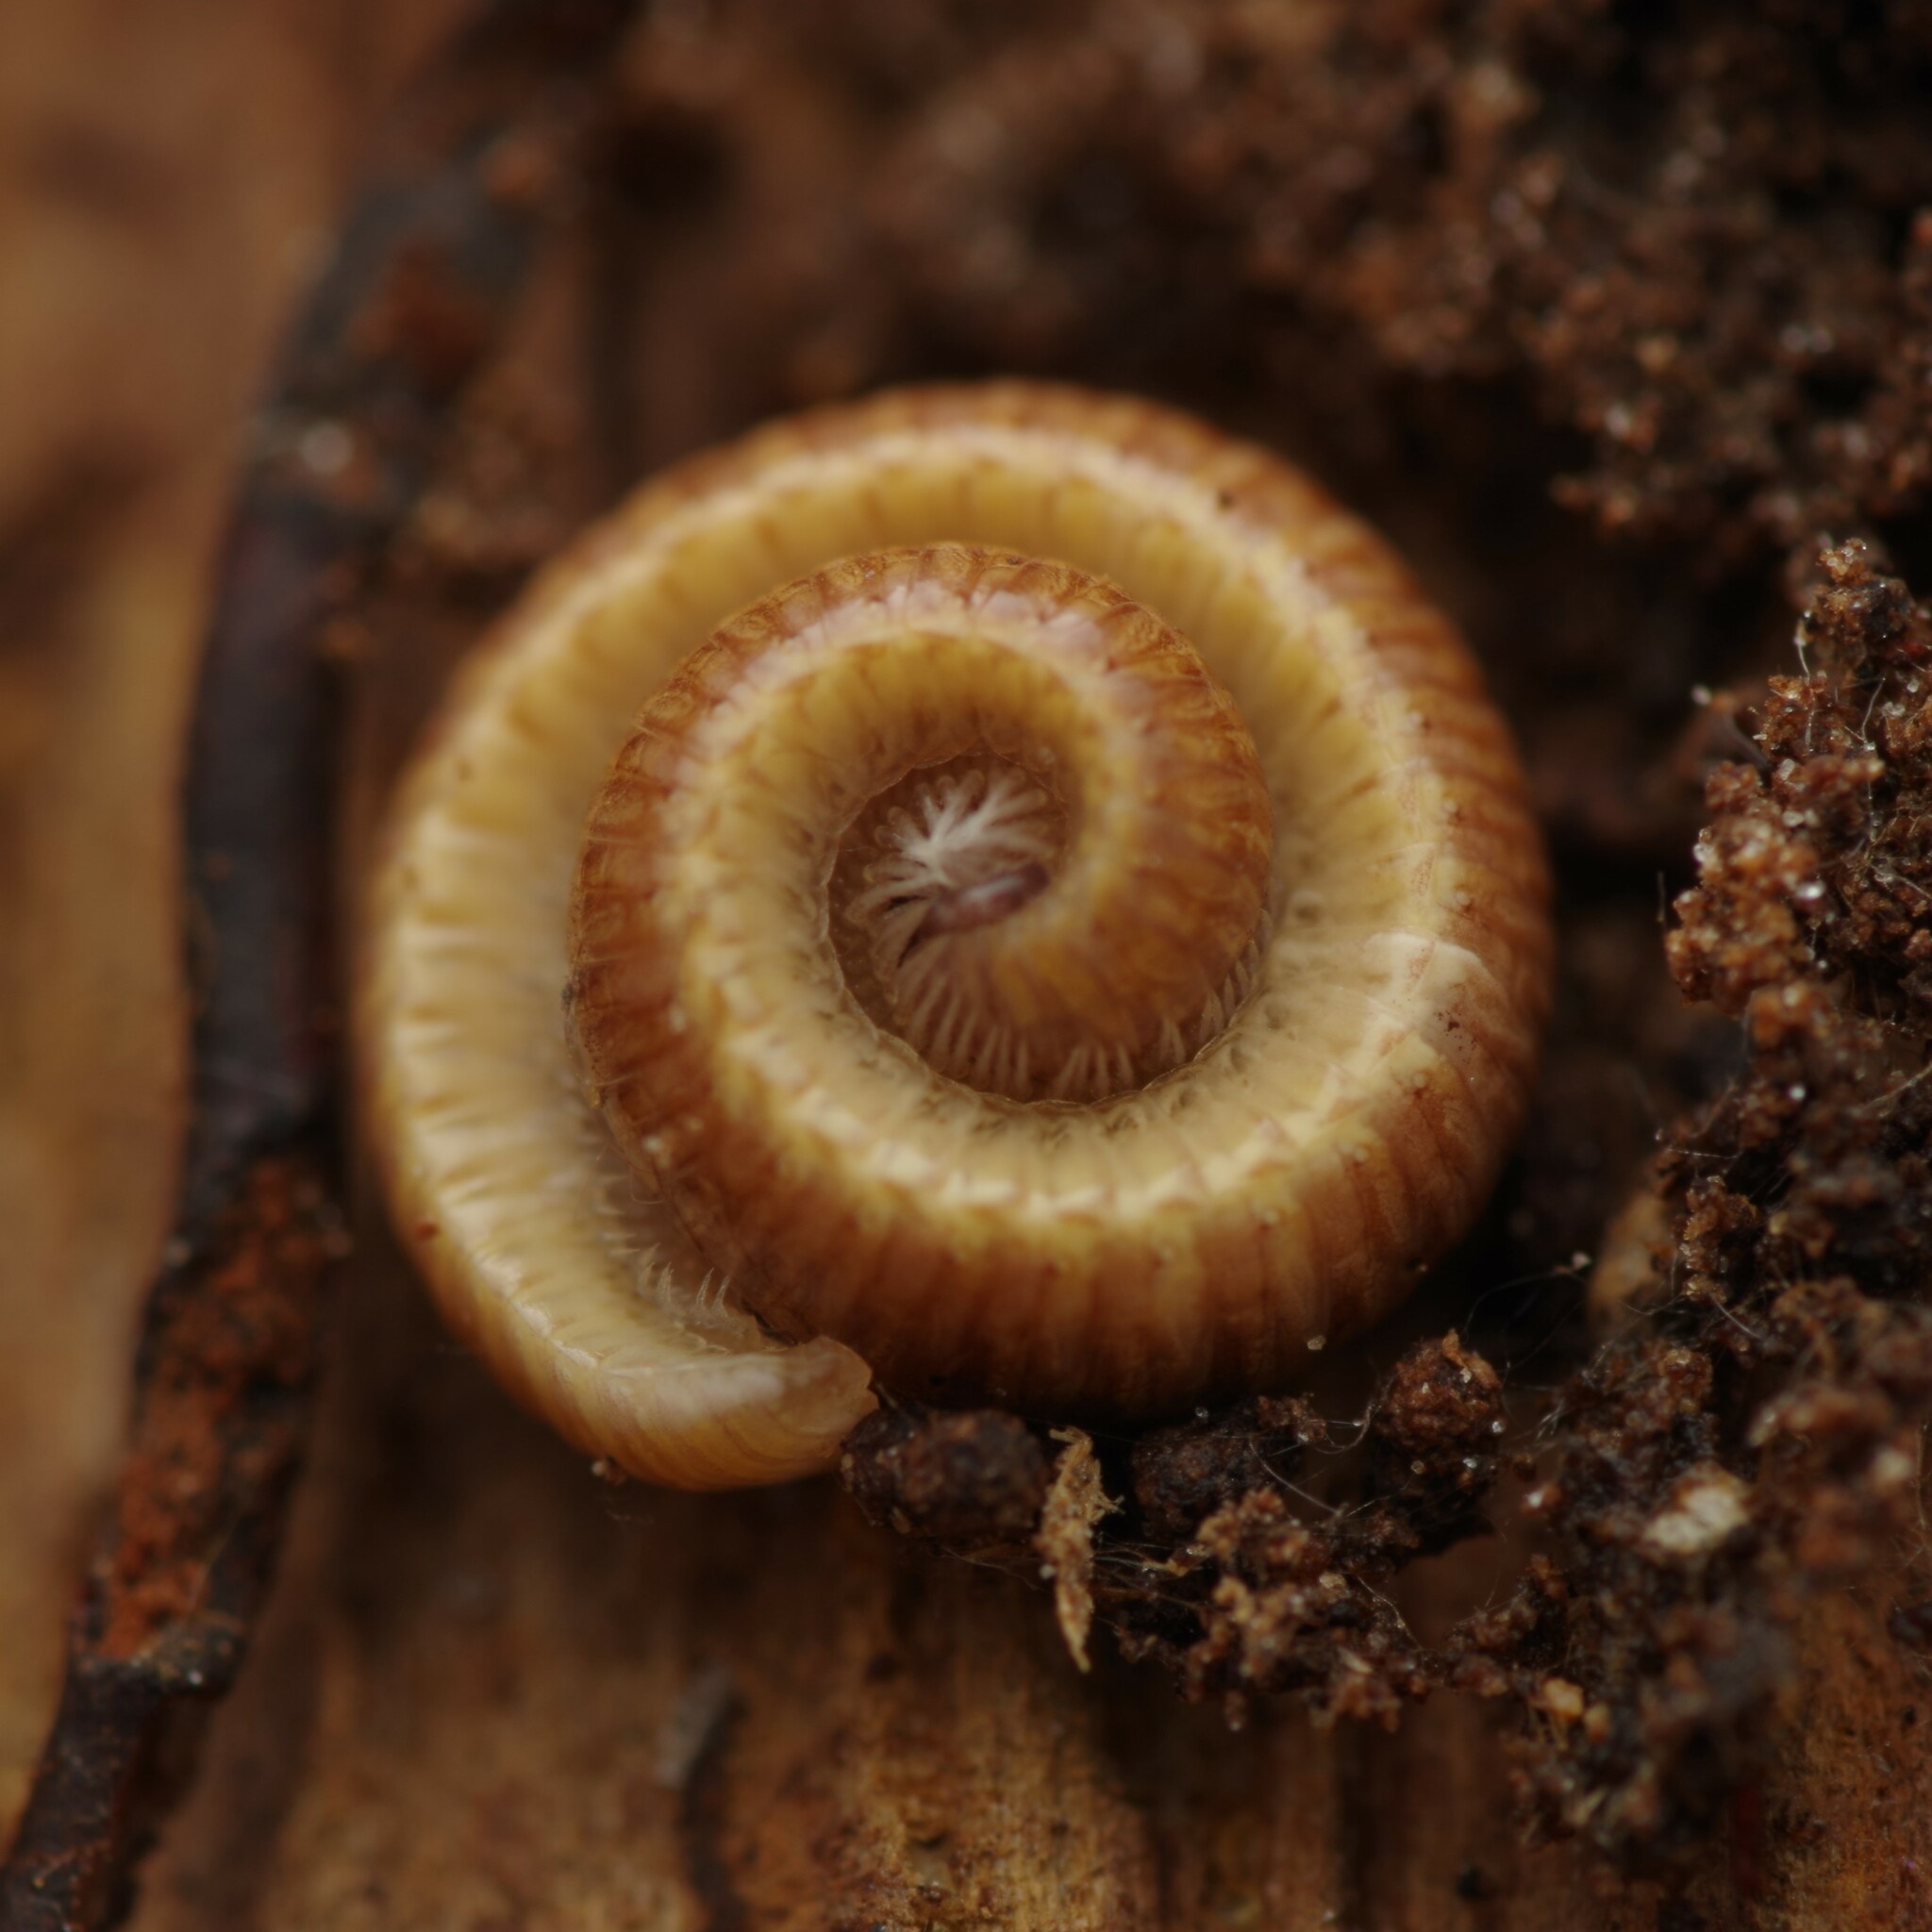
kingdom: Animalia
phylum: Arthropoda
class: Diplopoda
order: Polyzoniida
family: Polyzoniidae
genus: Polyzonium
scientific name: Polyzonium germanicum
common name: Boring millipede
